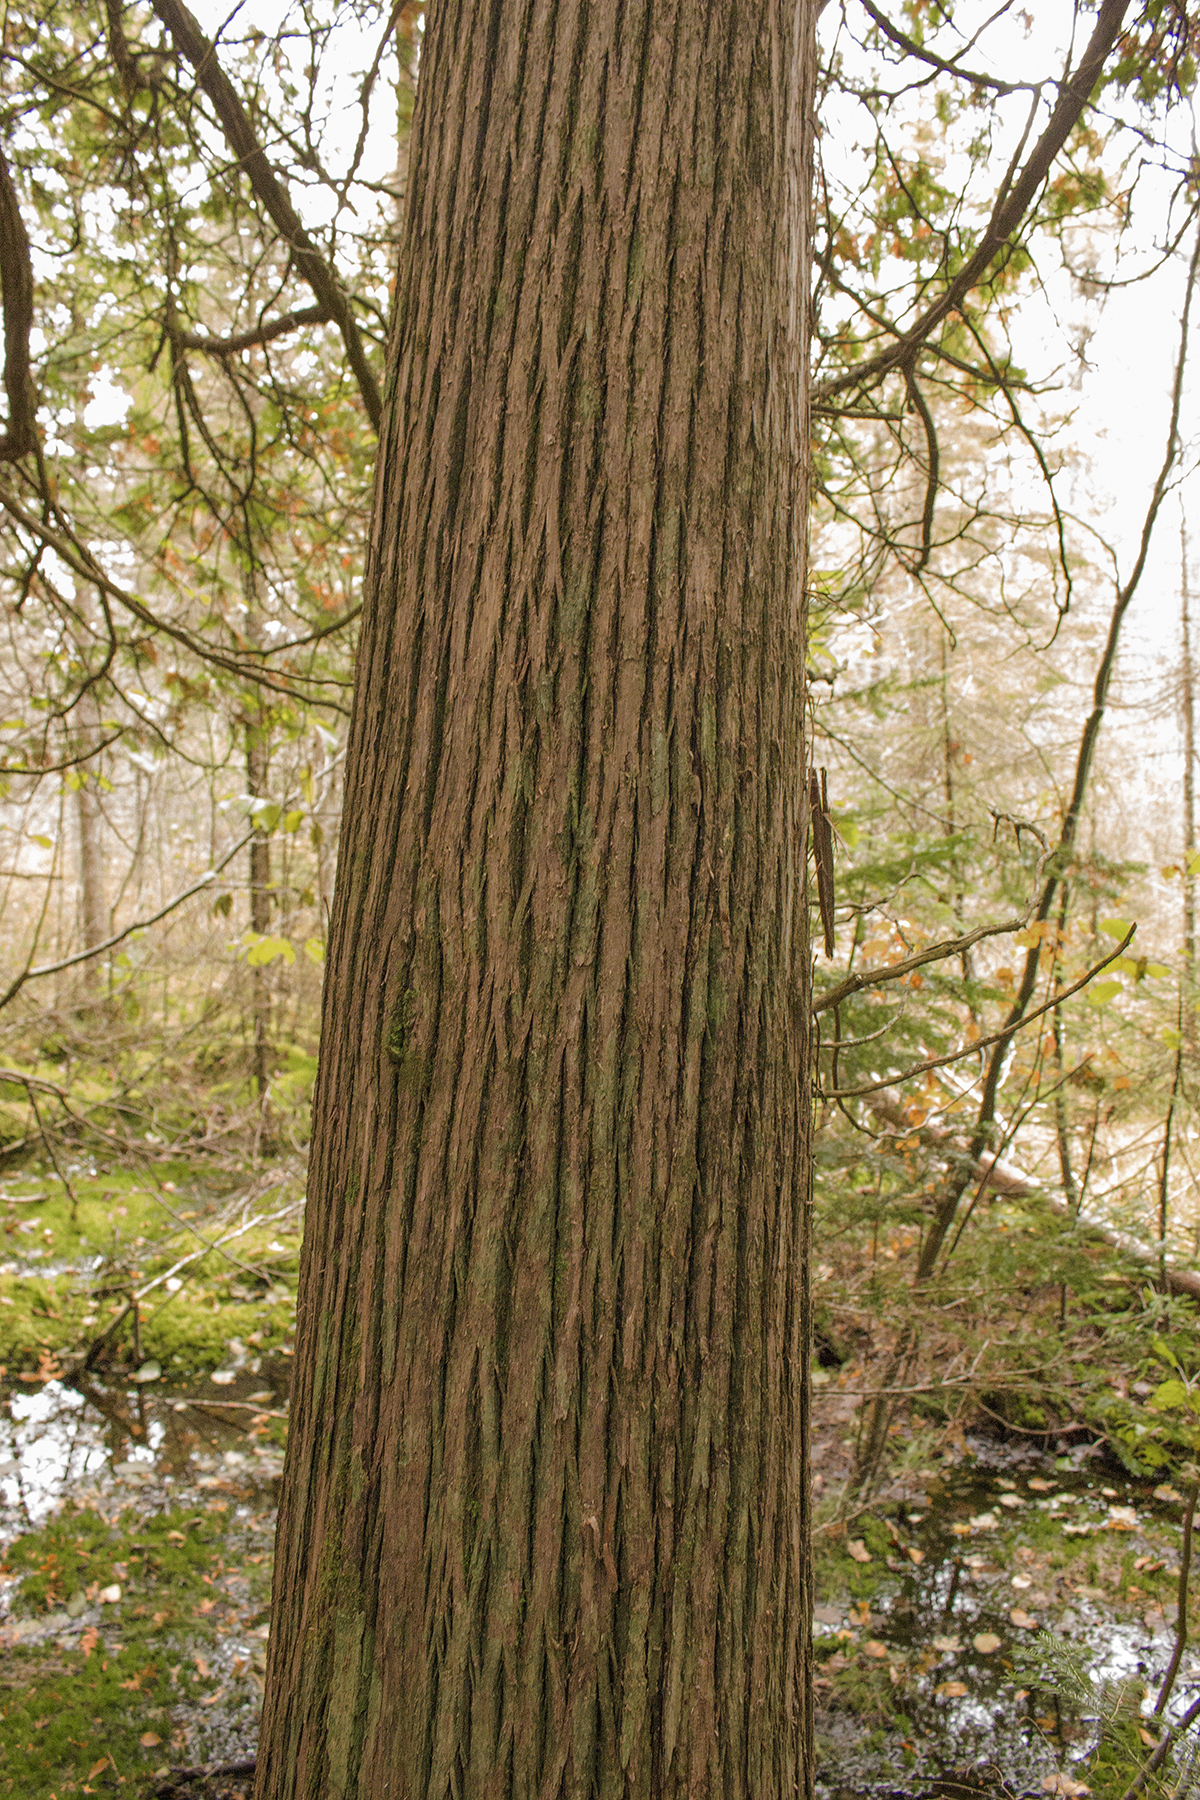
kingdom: Plantae
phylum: Tracheophyta
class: Pinopsida
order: Pinales
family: Cupressaceae
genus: Thuja
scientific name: Thuja occidentalis
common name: Northern white-cedar
